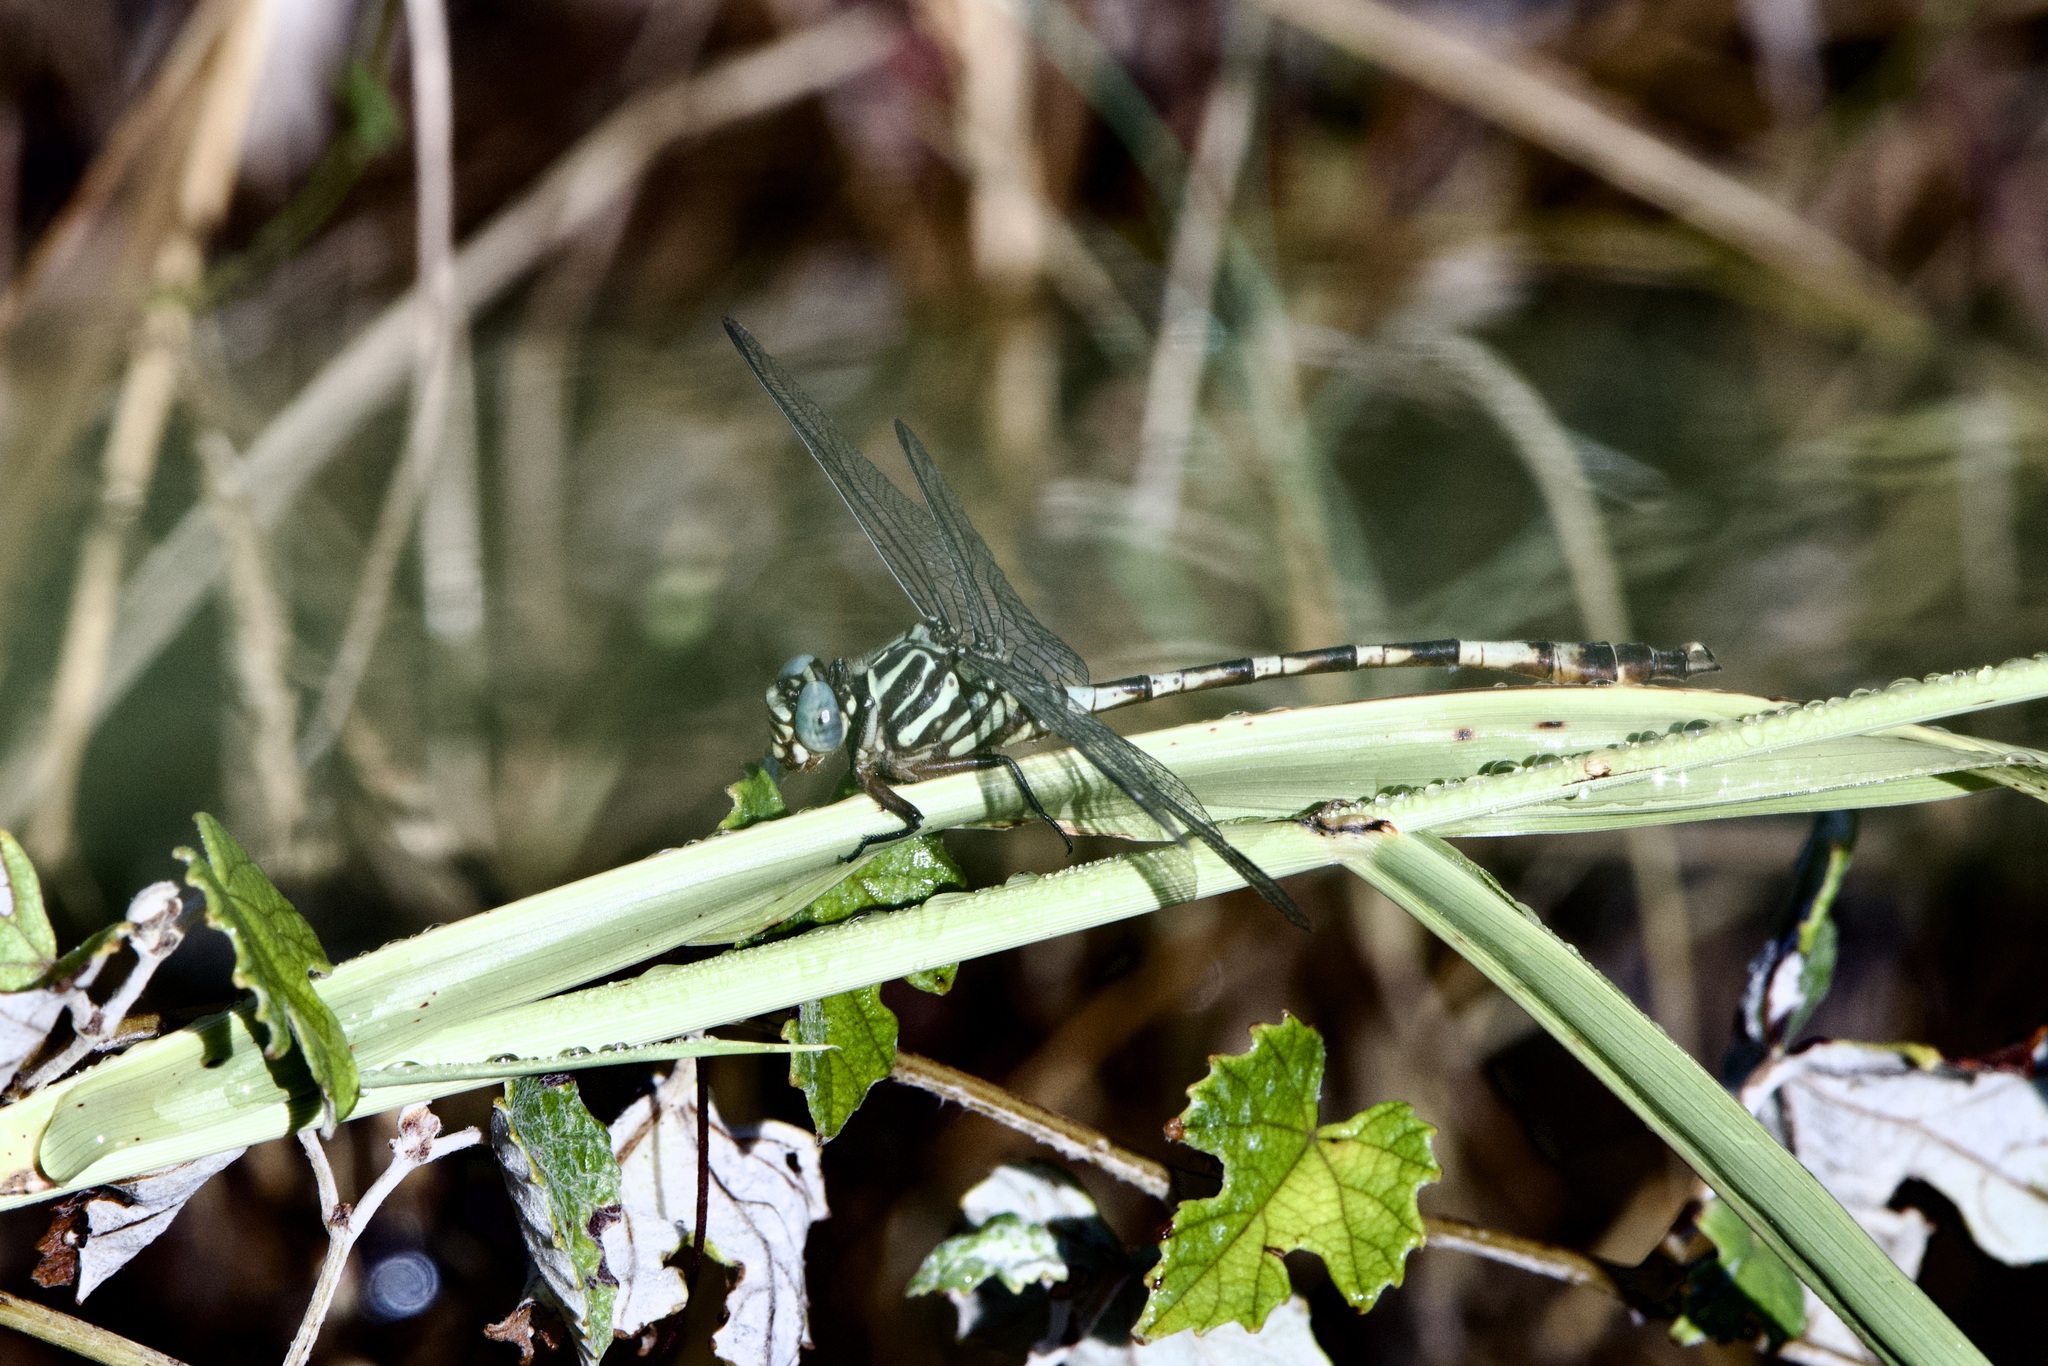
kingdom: Animalia
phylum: Arthropoda
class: Insecta
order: Odonata
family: Gomphidae
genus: Aphylla
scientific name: Aphylla angustifolia
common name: Broad-striped forceptail
